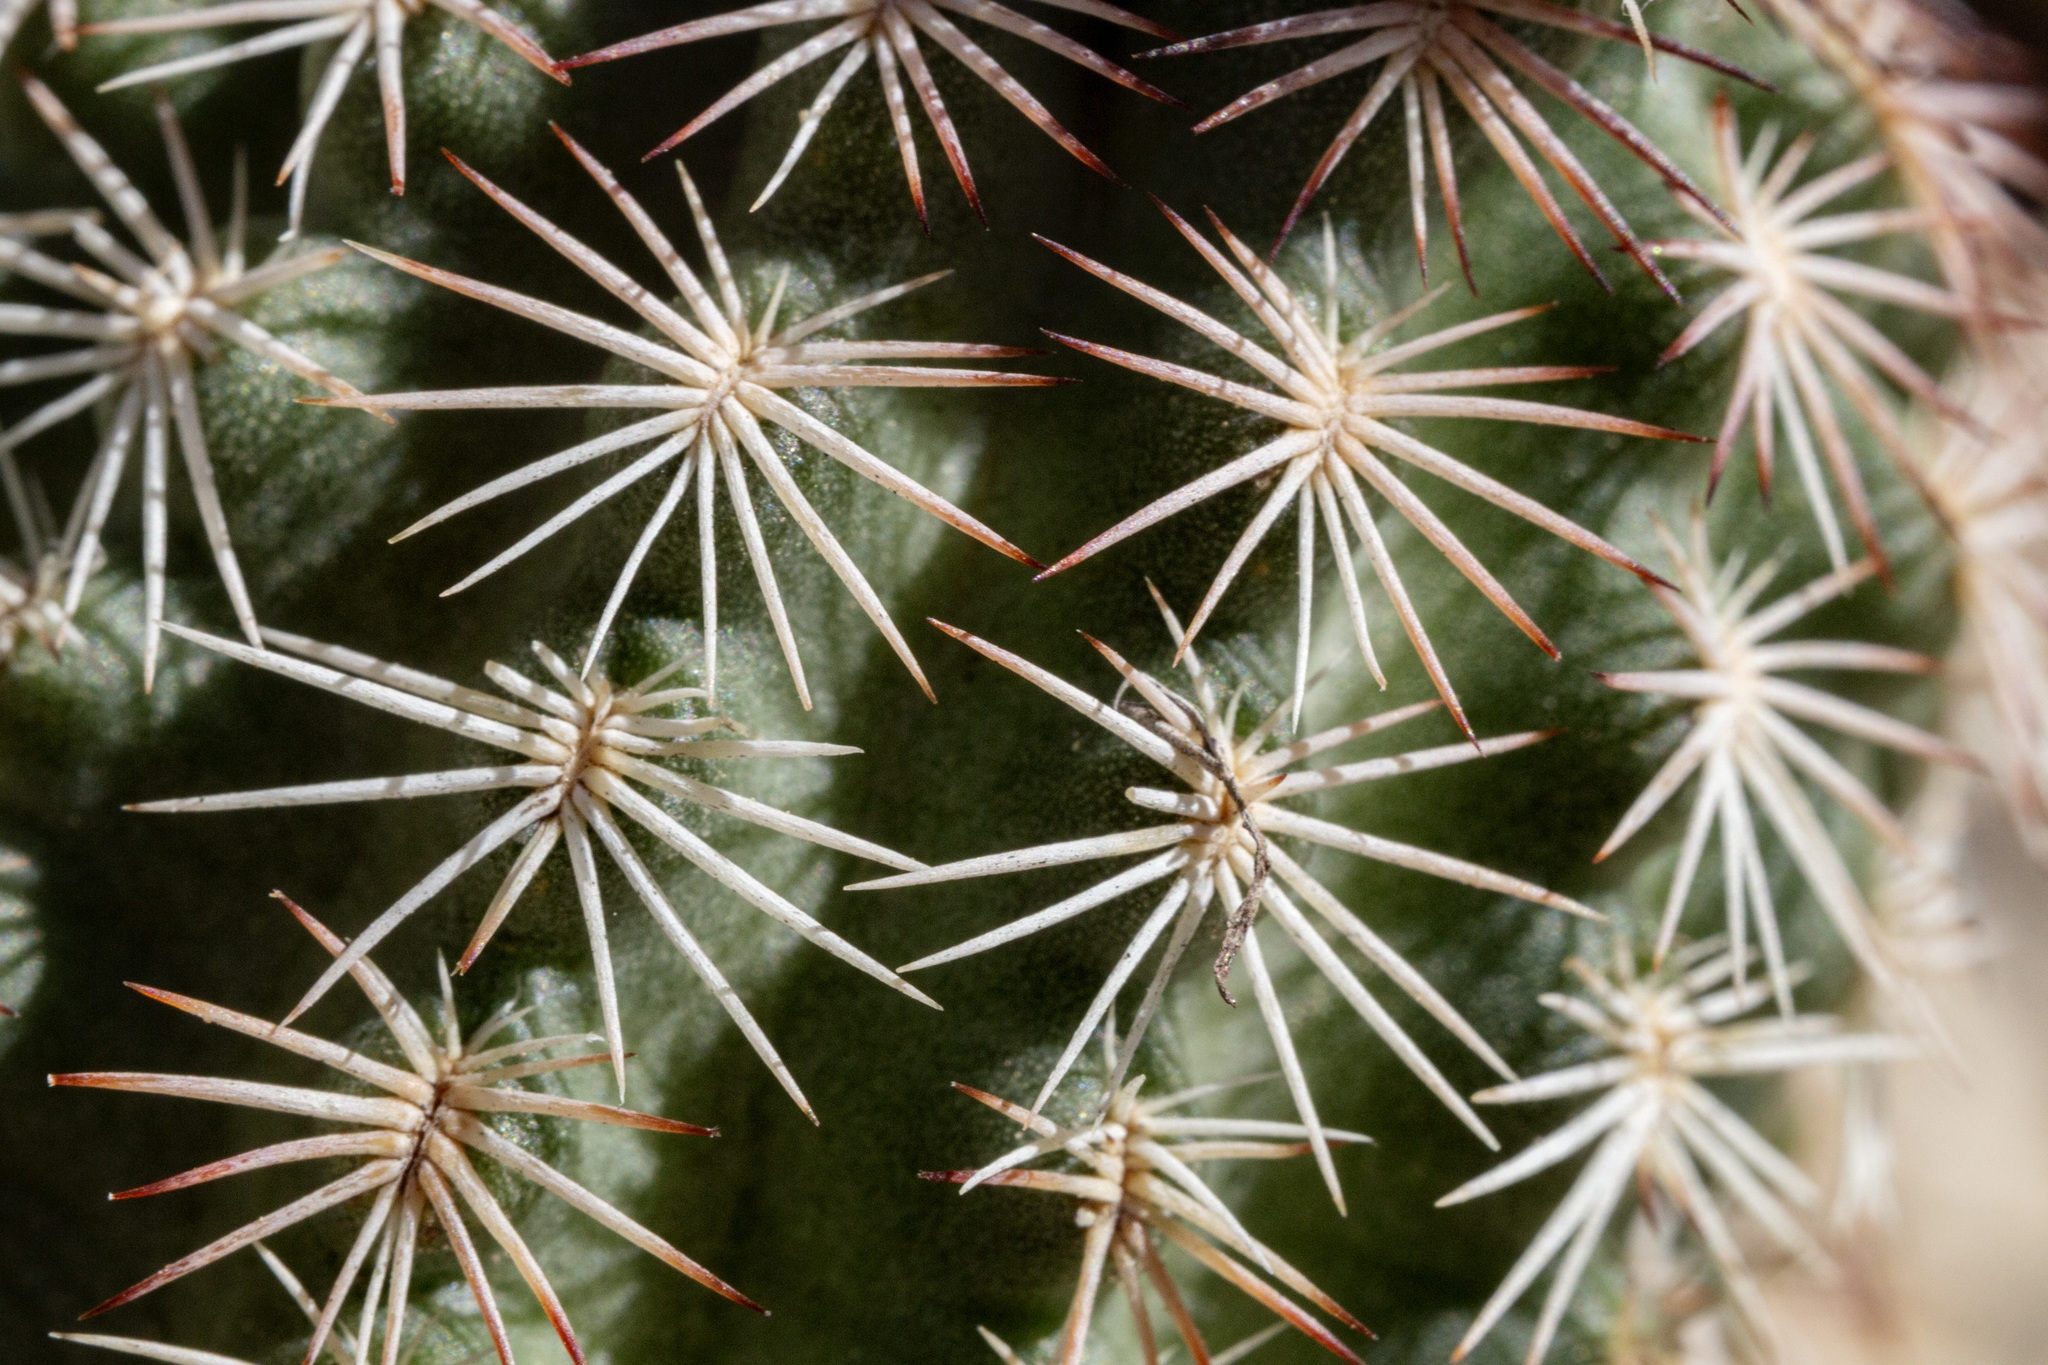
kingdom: Plantae
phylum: Tracheophyta
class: Magnoliopsida
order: Caryophyllales
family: Cactaceae
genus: Echinocereus
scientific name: Echinocereus reichenbachii
